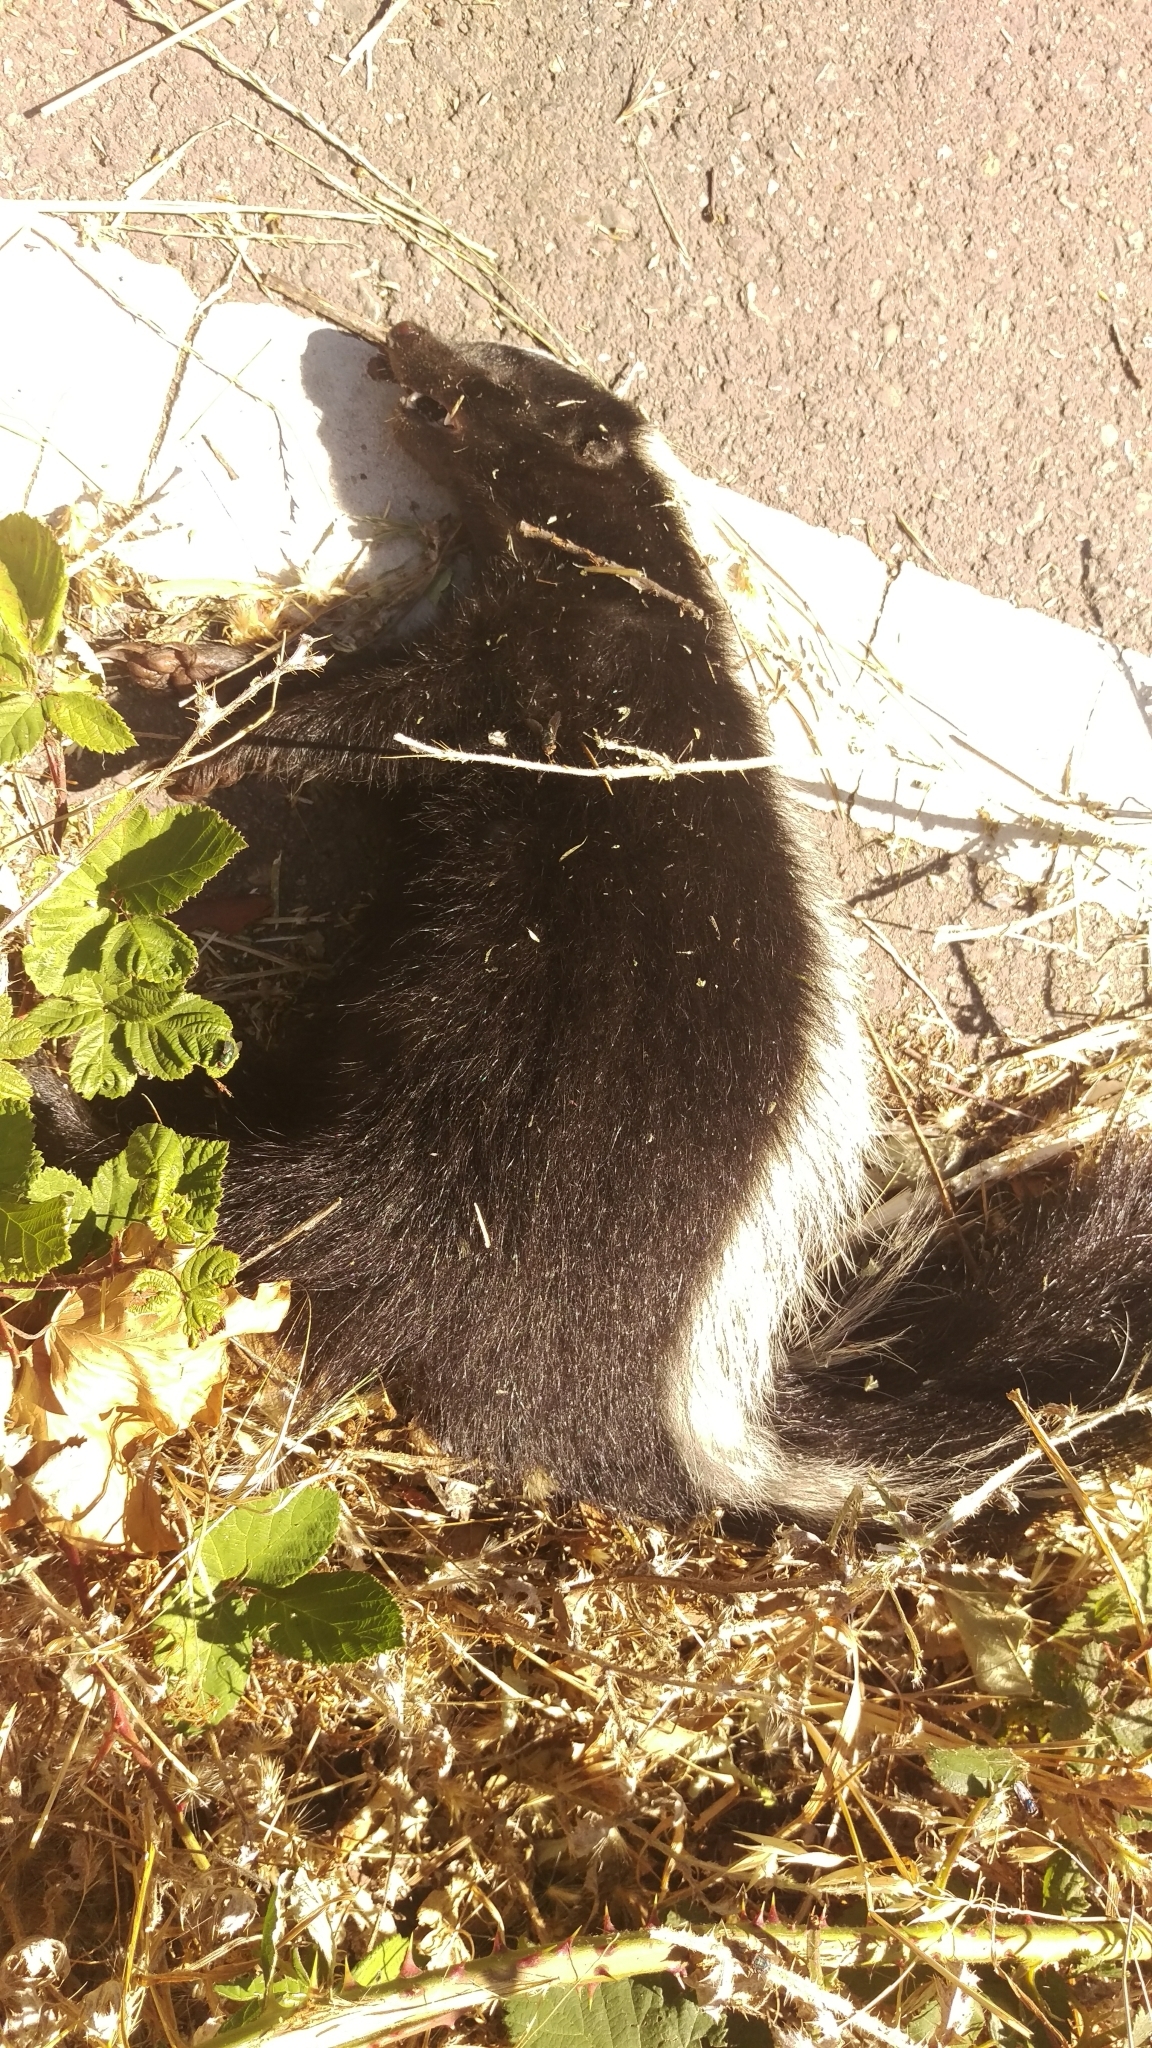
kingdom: Animalia
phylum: Chordata
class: Mammalia
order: Carnivora
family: Mephitidae
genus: Mephitis
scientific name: Mephitis mephitis
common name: Striped skunk
